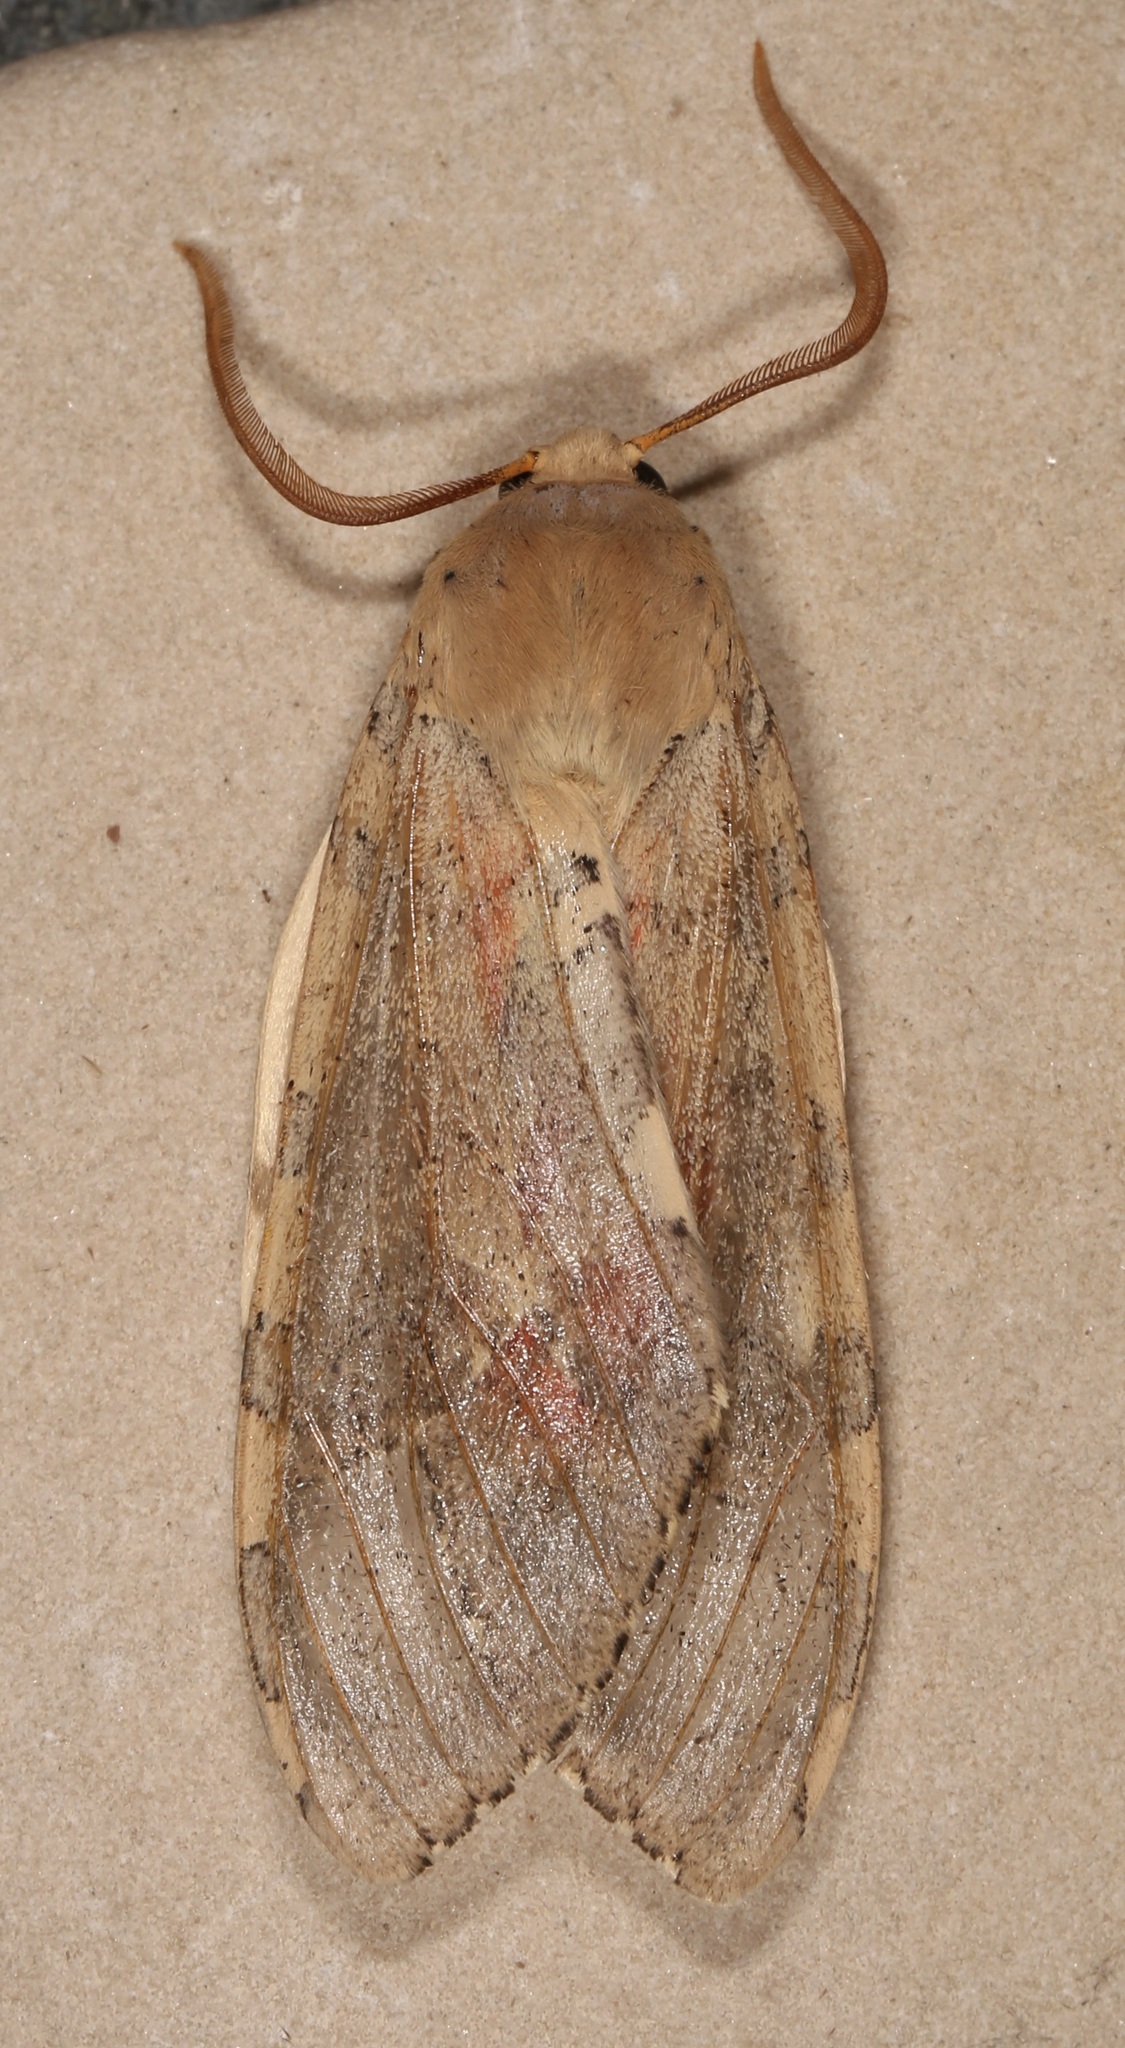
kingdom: Animalia
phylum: Arthropoda
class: Insecta
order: Lepidoptera
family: Erebidae
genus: Hemihyalea
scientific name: Hemihyalea edwardsii
